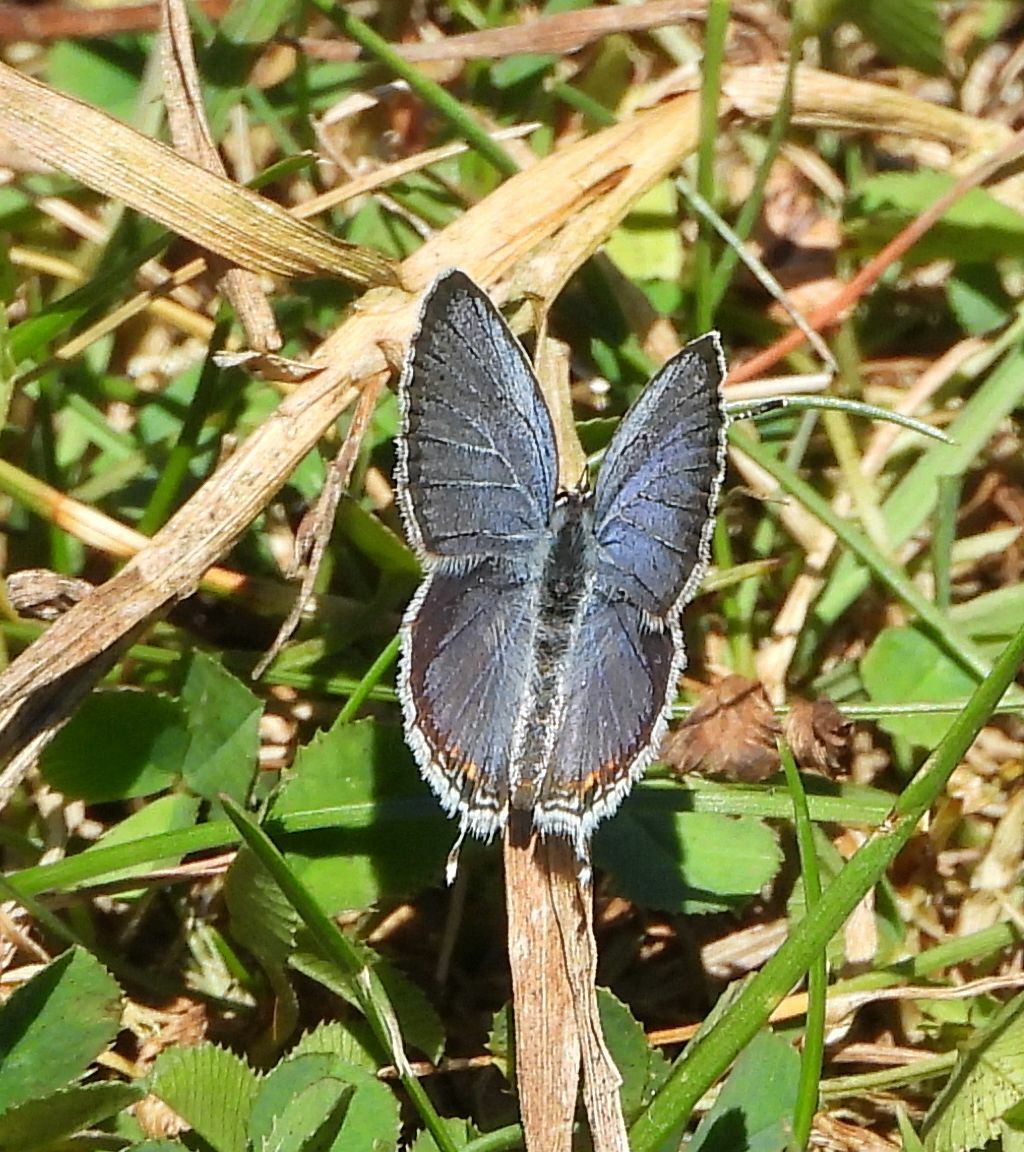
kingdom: Animalia
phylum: Arthropoda
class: Insecta
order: Lepidoptera
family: Lycaenidae
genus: Elkalyce
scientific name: Elkalyce comyntas
